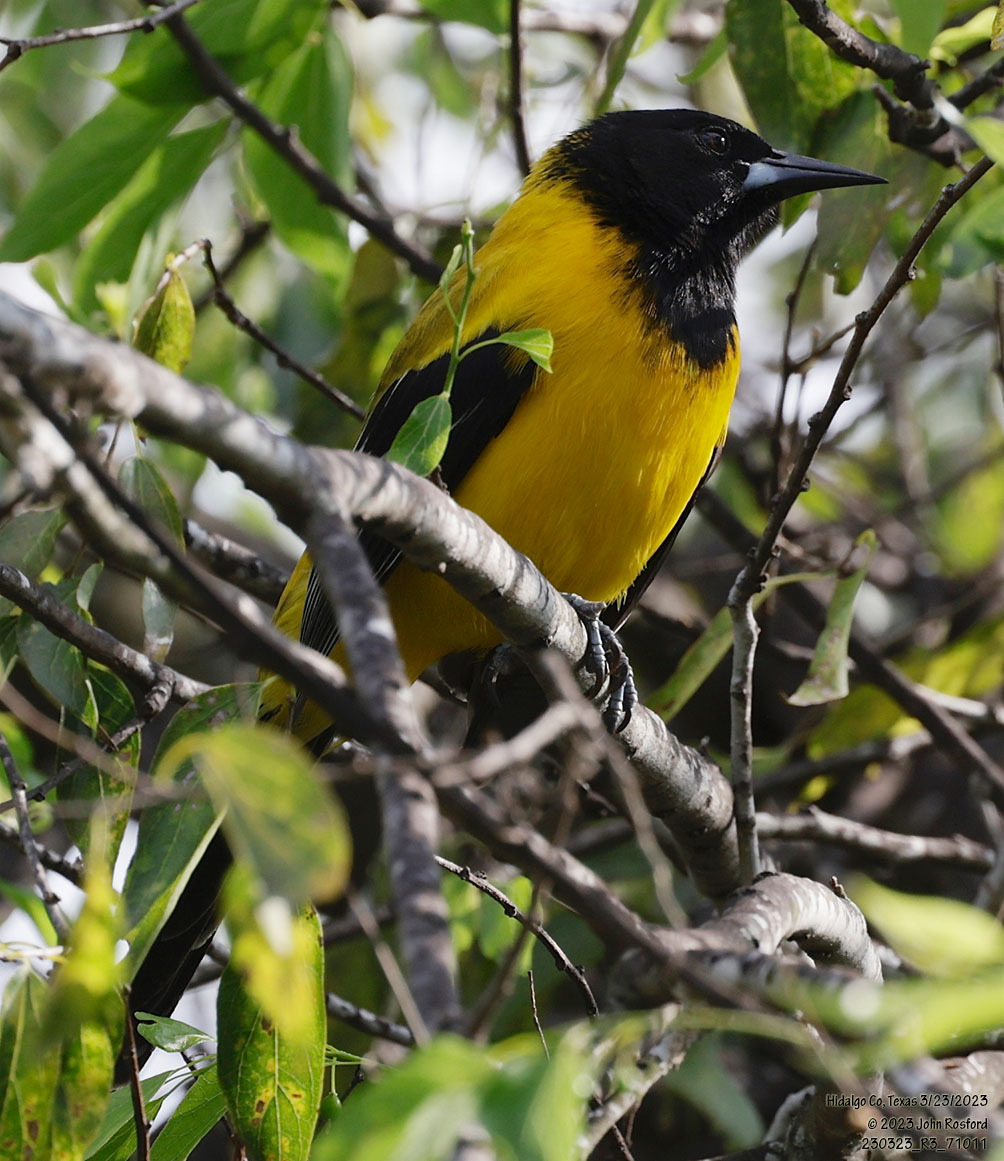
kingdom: Animalia
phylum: Chordata
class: Aves
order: Passeriformes
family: Icteridae
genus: Icterus
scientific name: Icterus graduacauda
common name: Audubon's oriole
